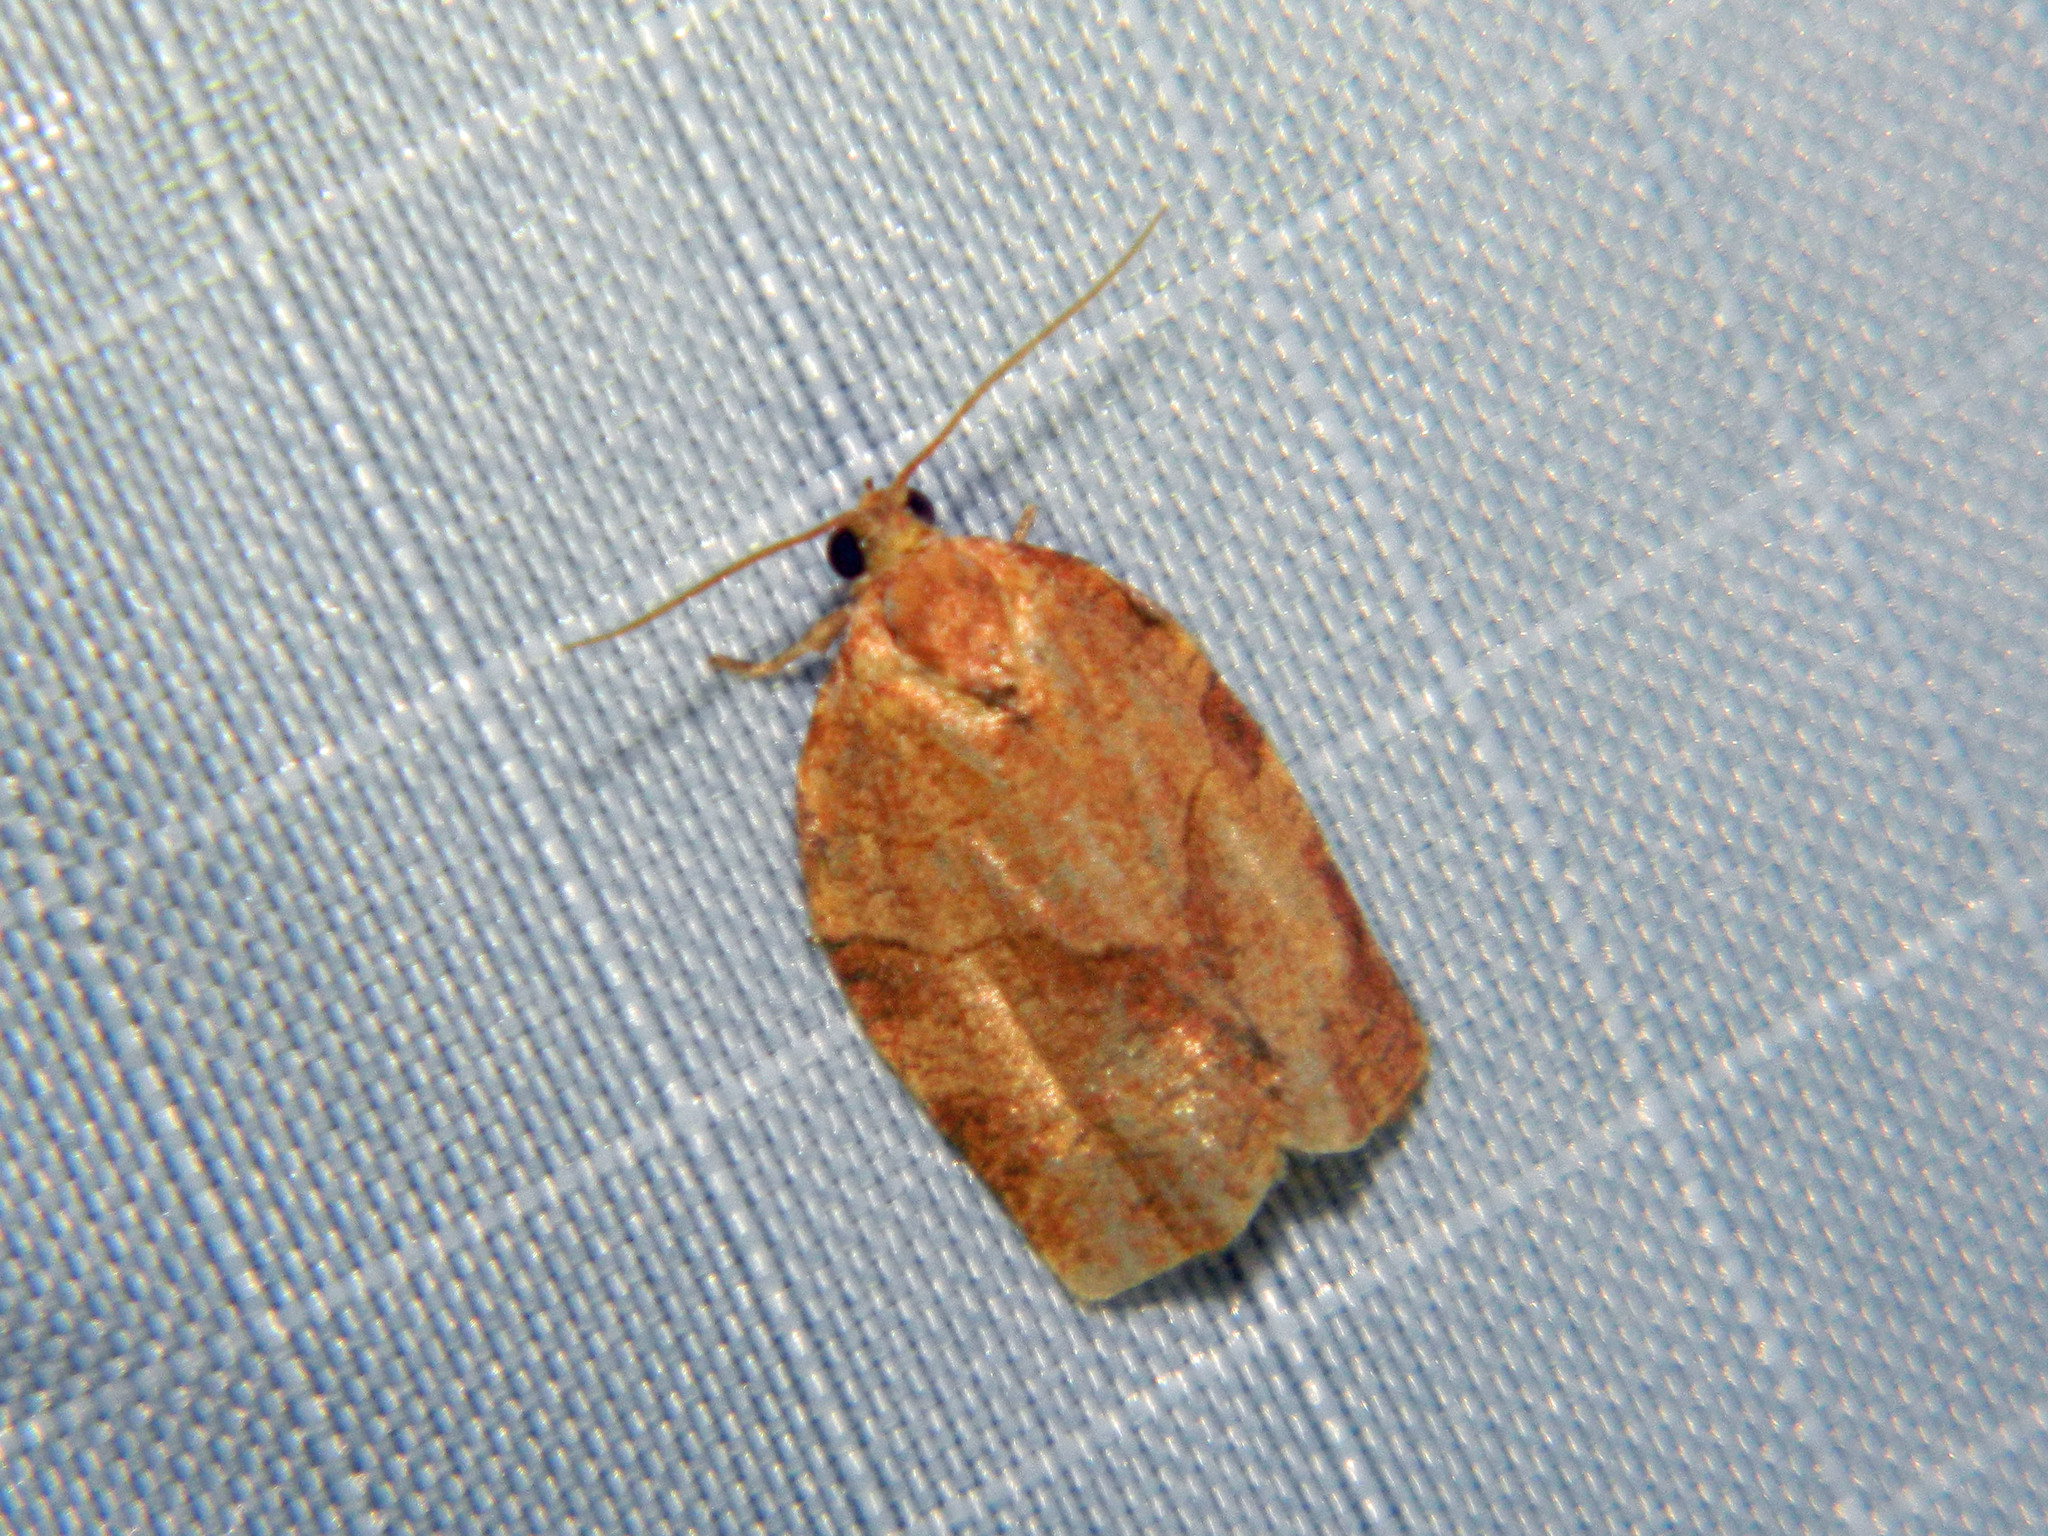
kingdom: Animalia
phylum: Arthropoda
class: Insecta
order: Lepidoptera
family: Tortricidae
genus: Choristoneura
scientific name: Choristoneura rosaceana
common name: Oblique-banded leafroller moth
